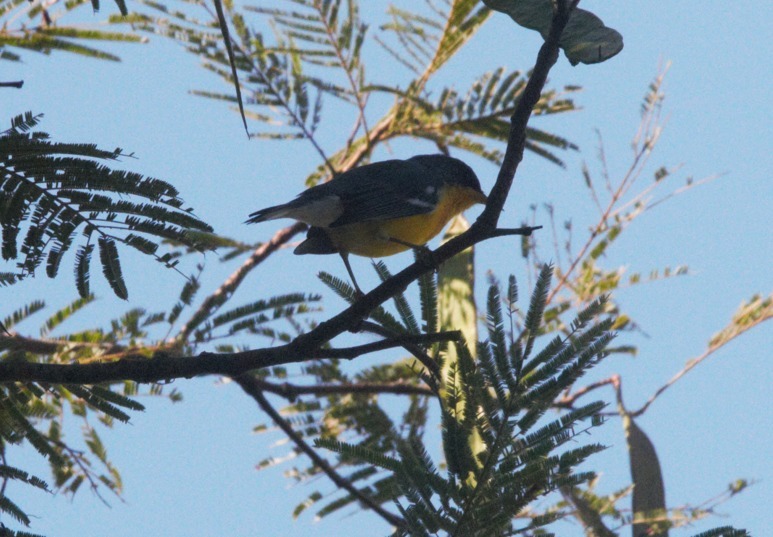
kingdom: Animalia
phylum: Chordata
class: Aves
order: Passeriformes
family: Parulidae
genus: Setophaga
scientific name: Setophaga pitiayumi
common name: Tropical parula
